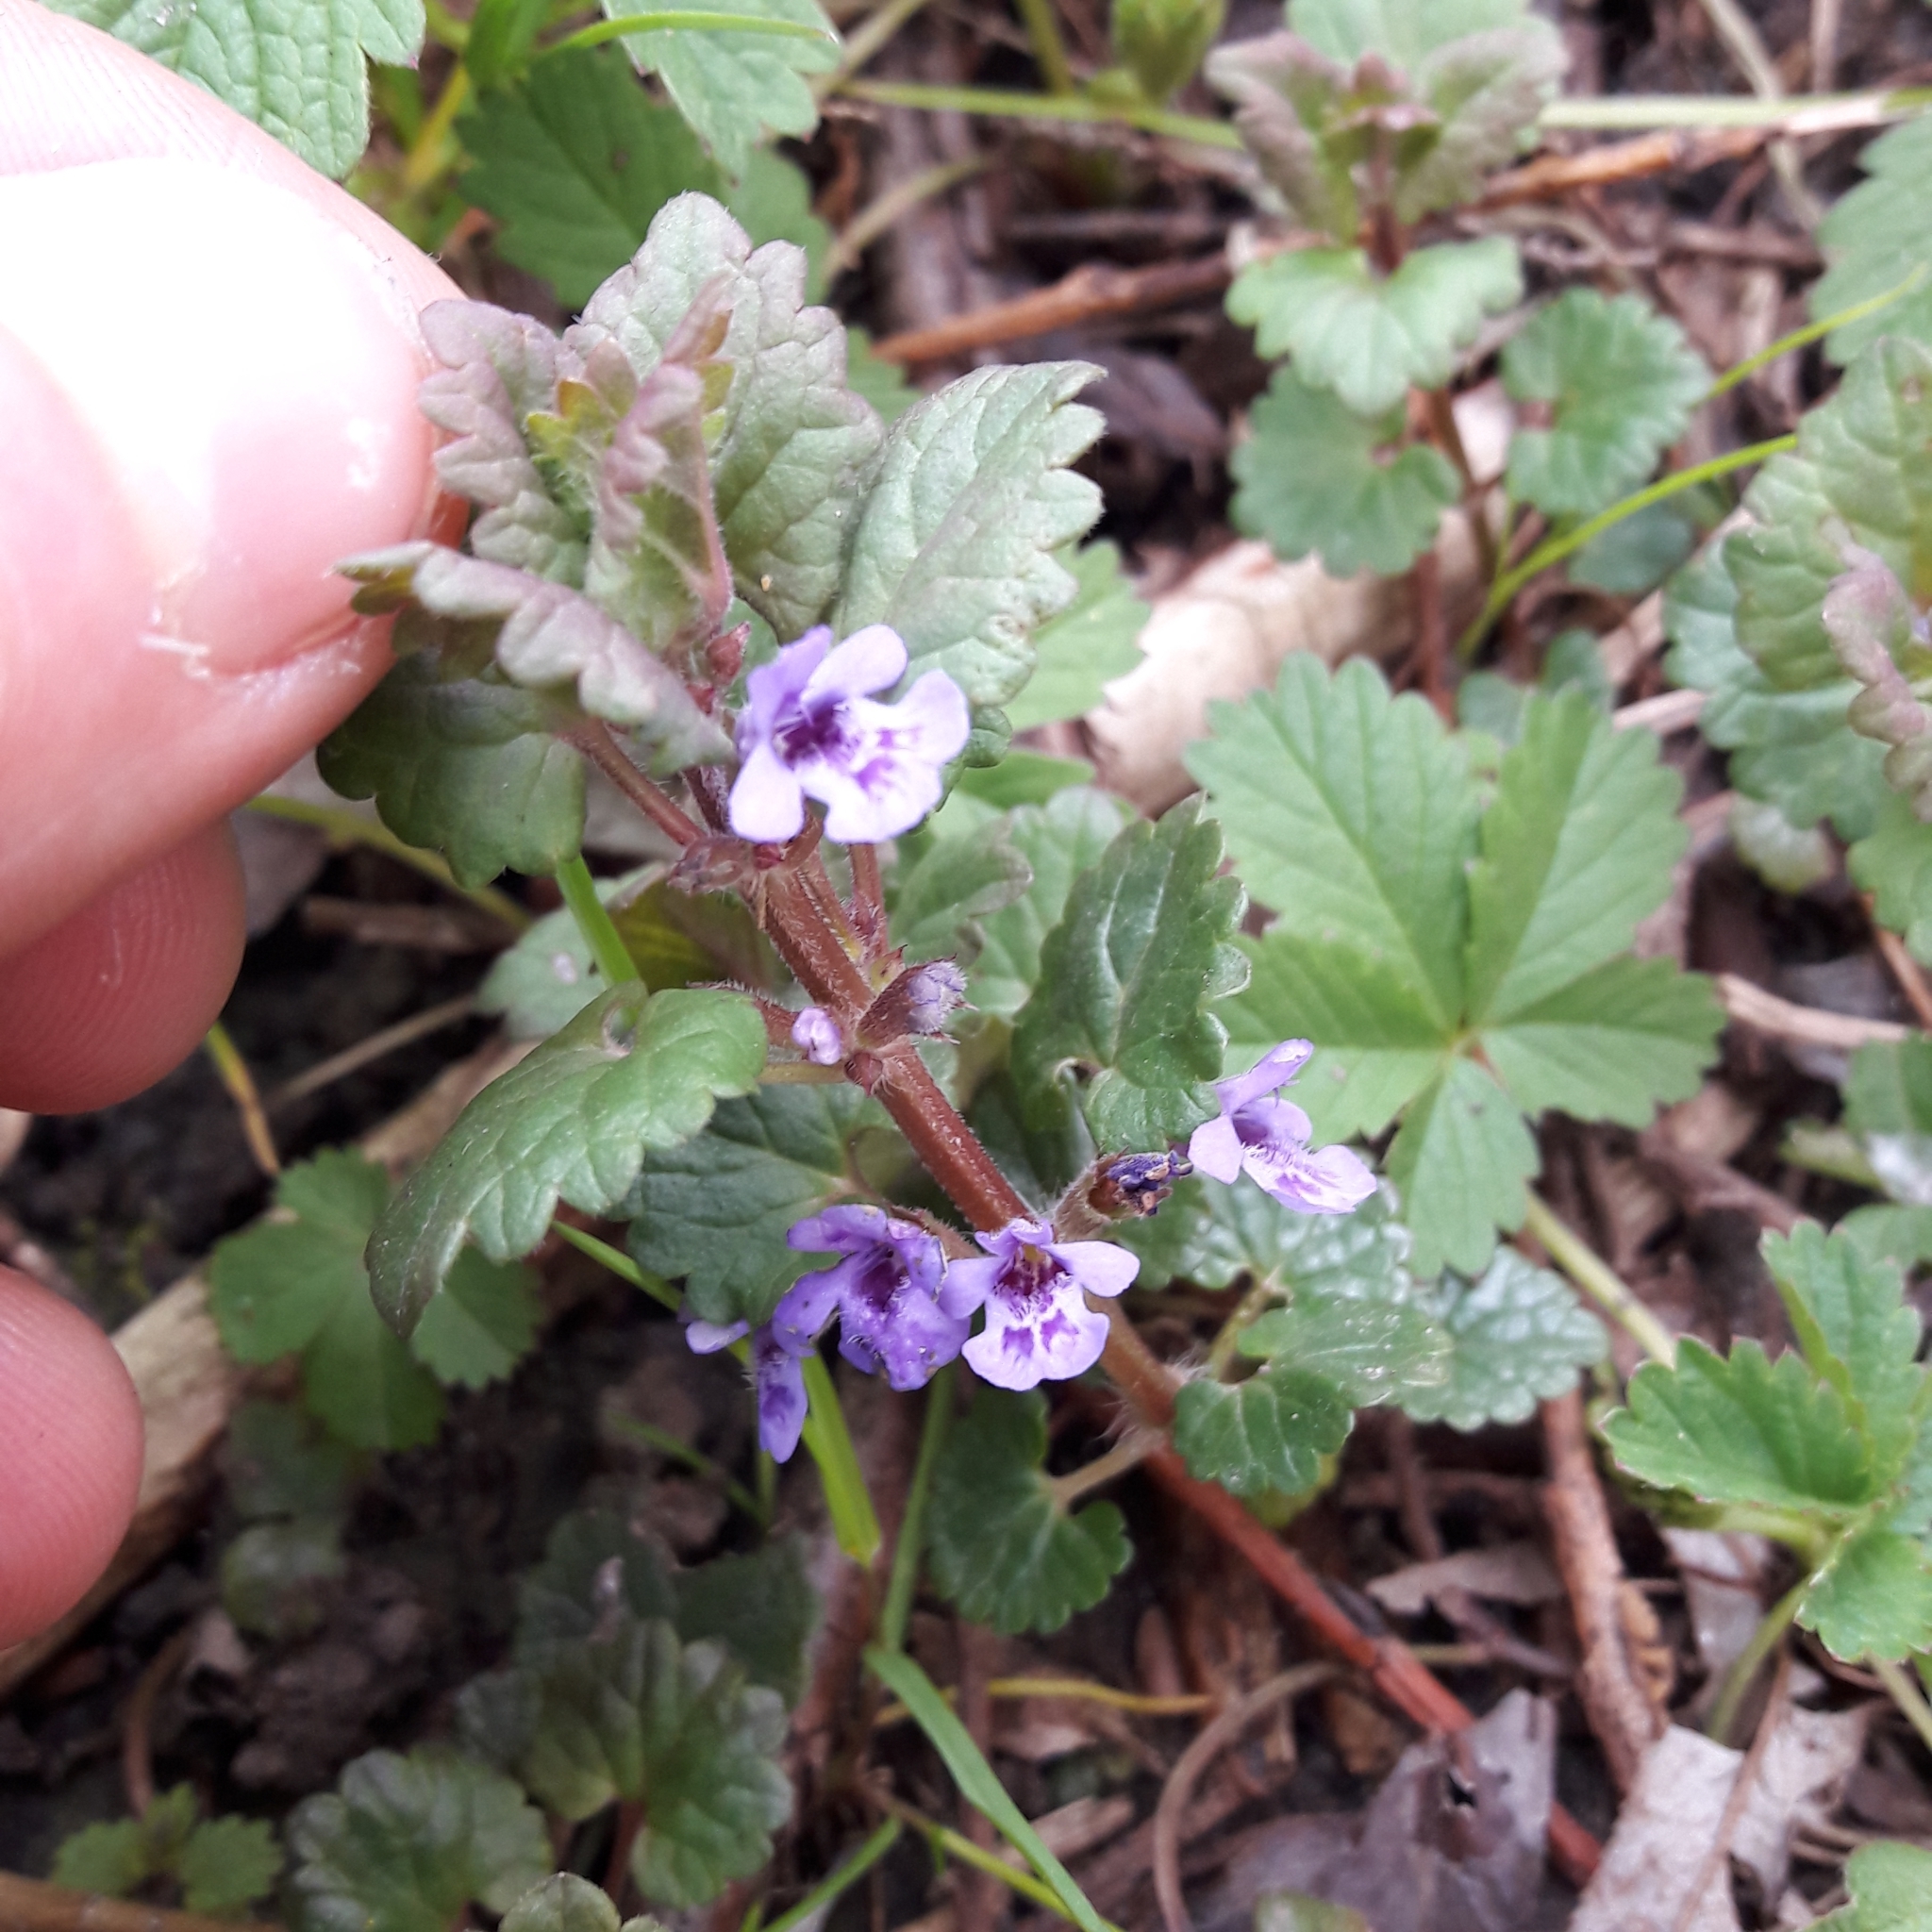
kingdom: Plantae
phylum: Tracheophyta
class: Magnoliopsida
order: Lamiales
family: Lamiaceae
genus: Glechoma
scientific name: Glechoma hederacea
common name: Ground ivy
